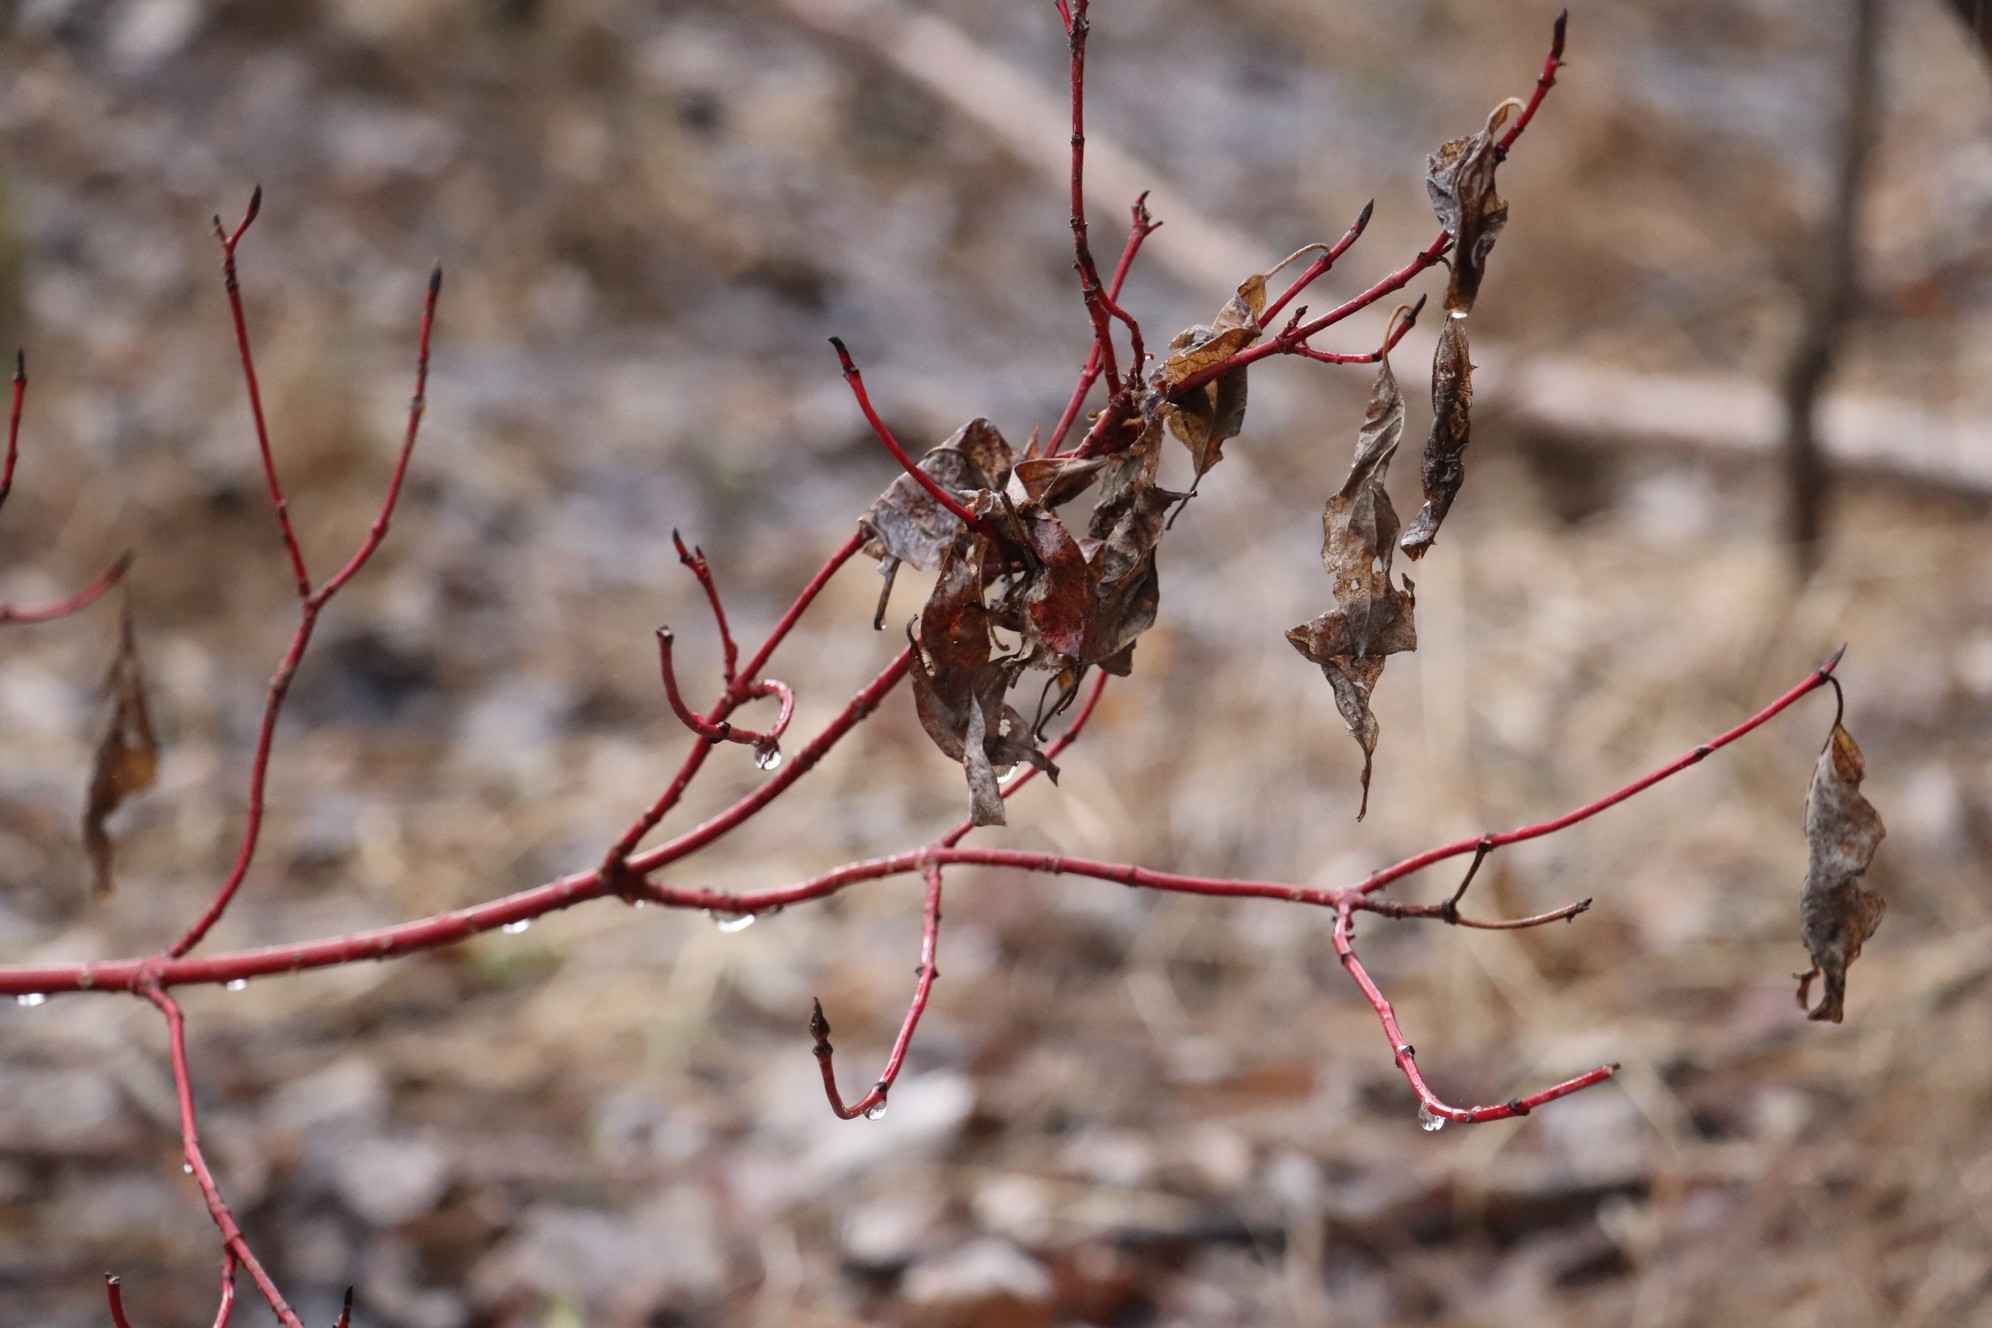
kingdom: Plantae
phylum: Tracheophyta
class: Magnoliopsida
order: Cornales
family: Cornaceae
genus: Cornus
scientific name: Cornus alba
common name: White dogwood
